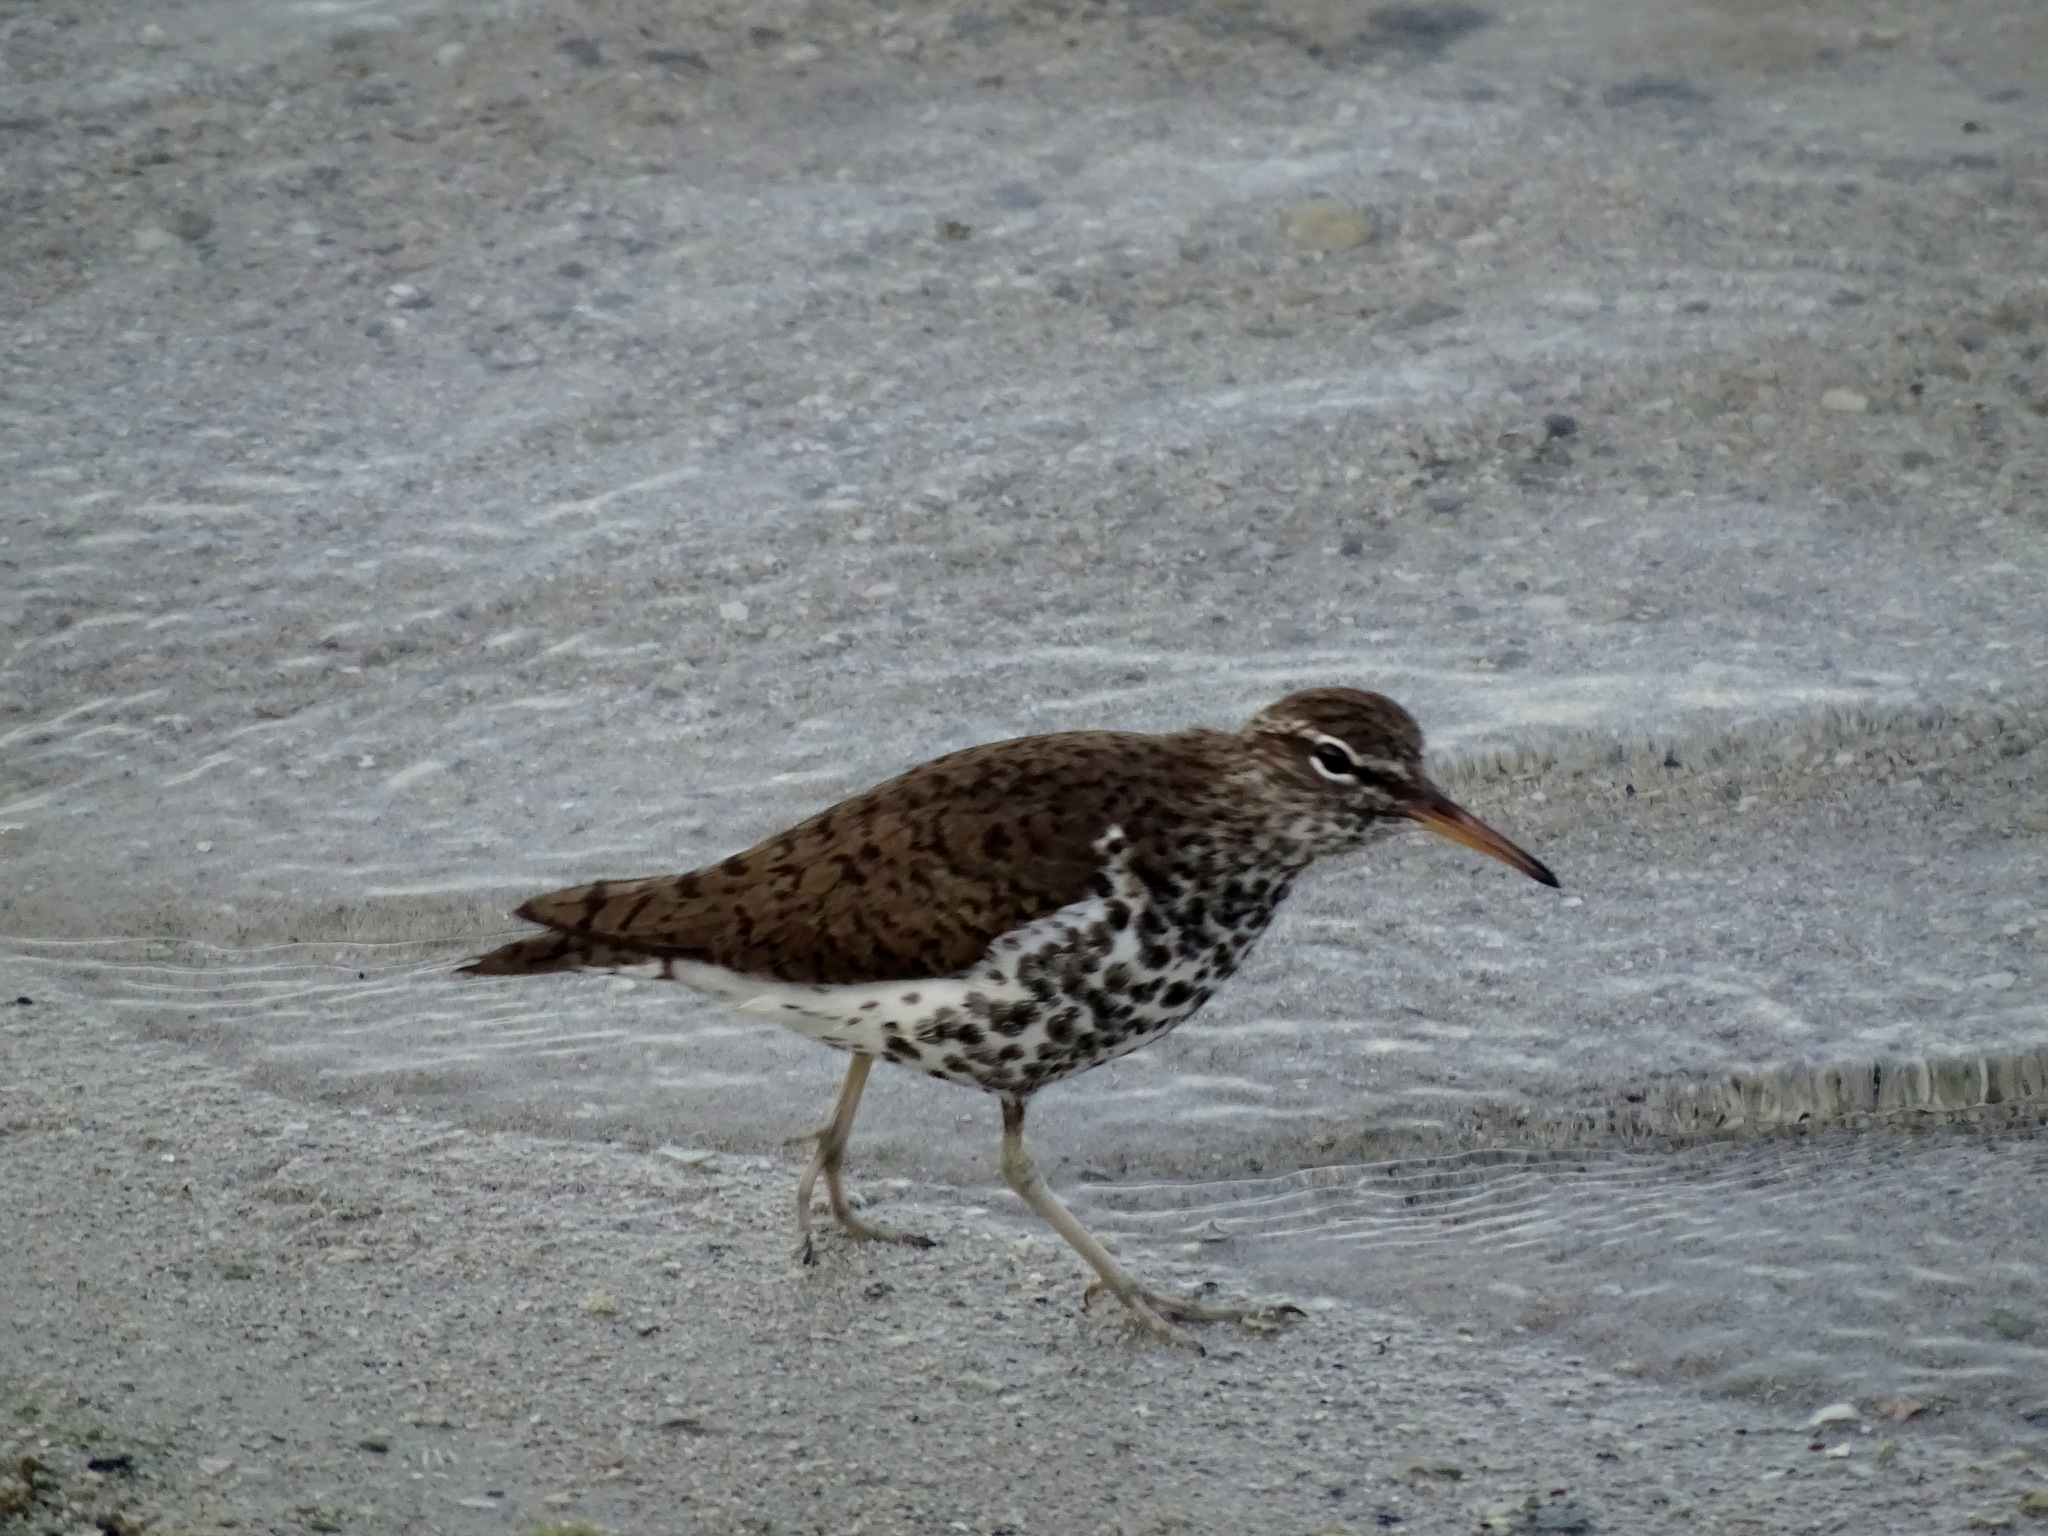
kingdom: Animalia
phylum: Chordata
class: Aves
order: Charadriiformes
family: Scolopacidae
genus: Actitis
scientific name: Actitis macularius
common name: Spotted sandpiper
